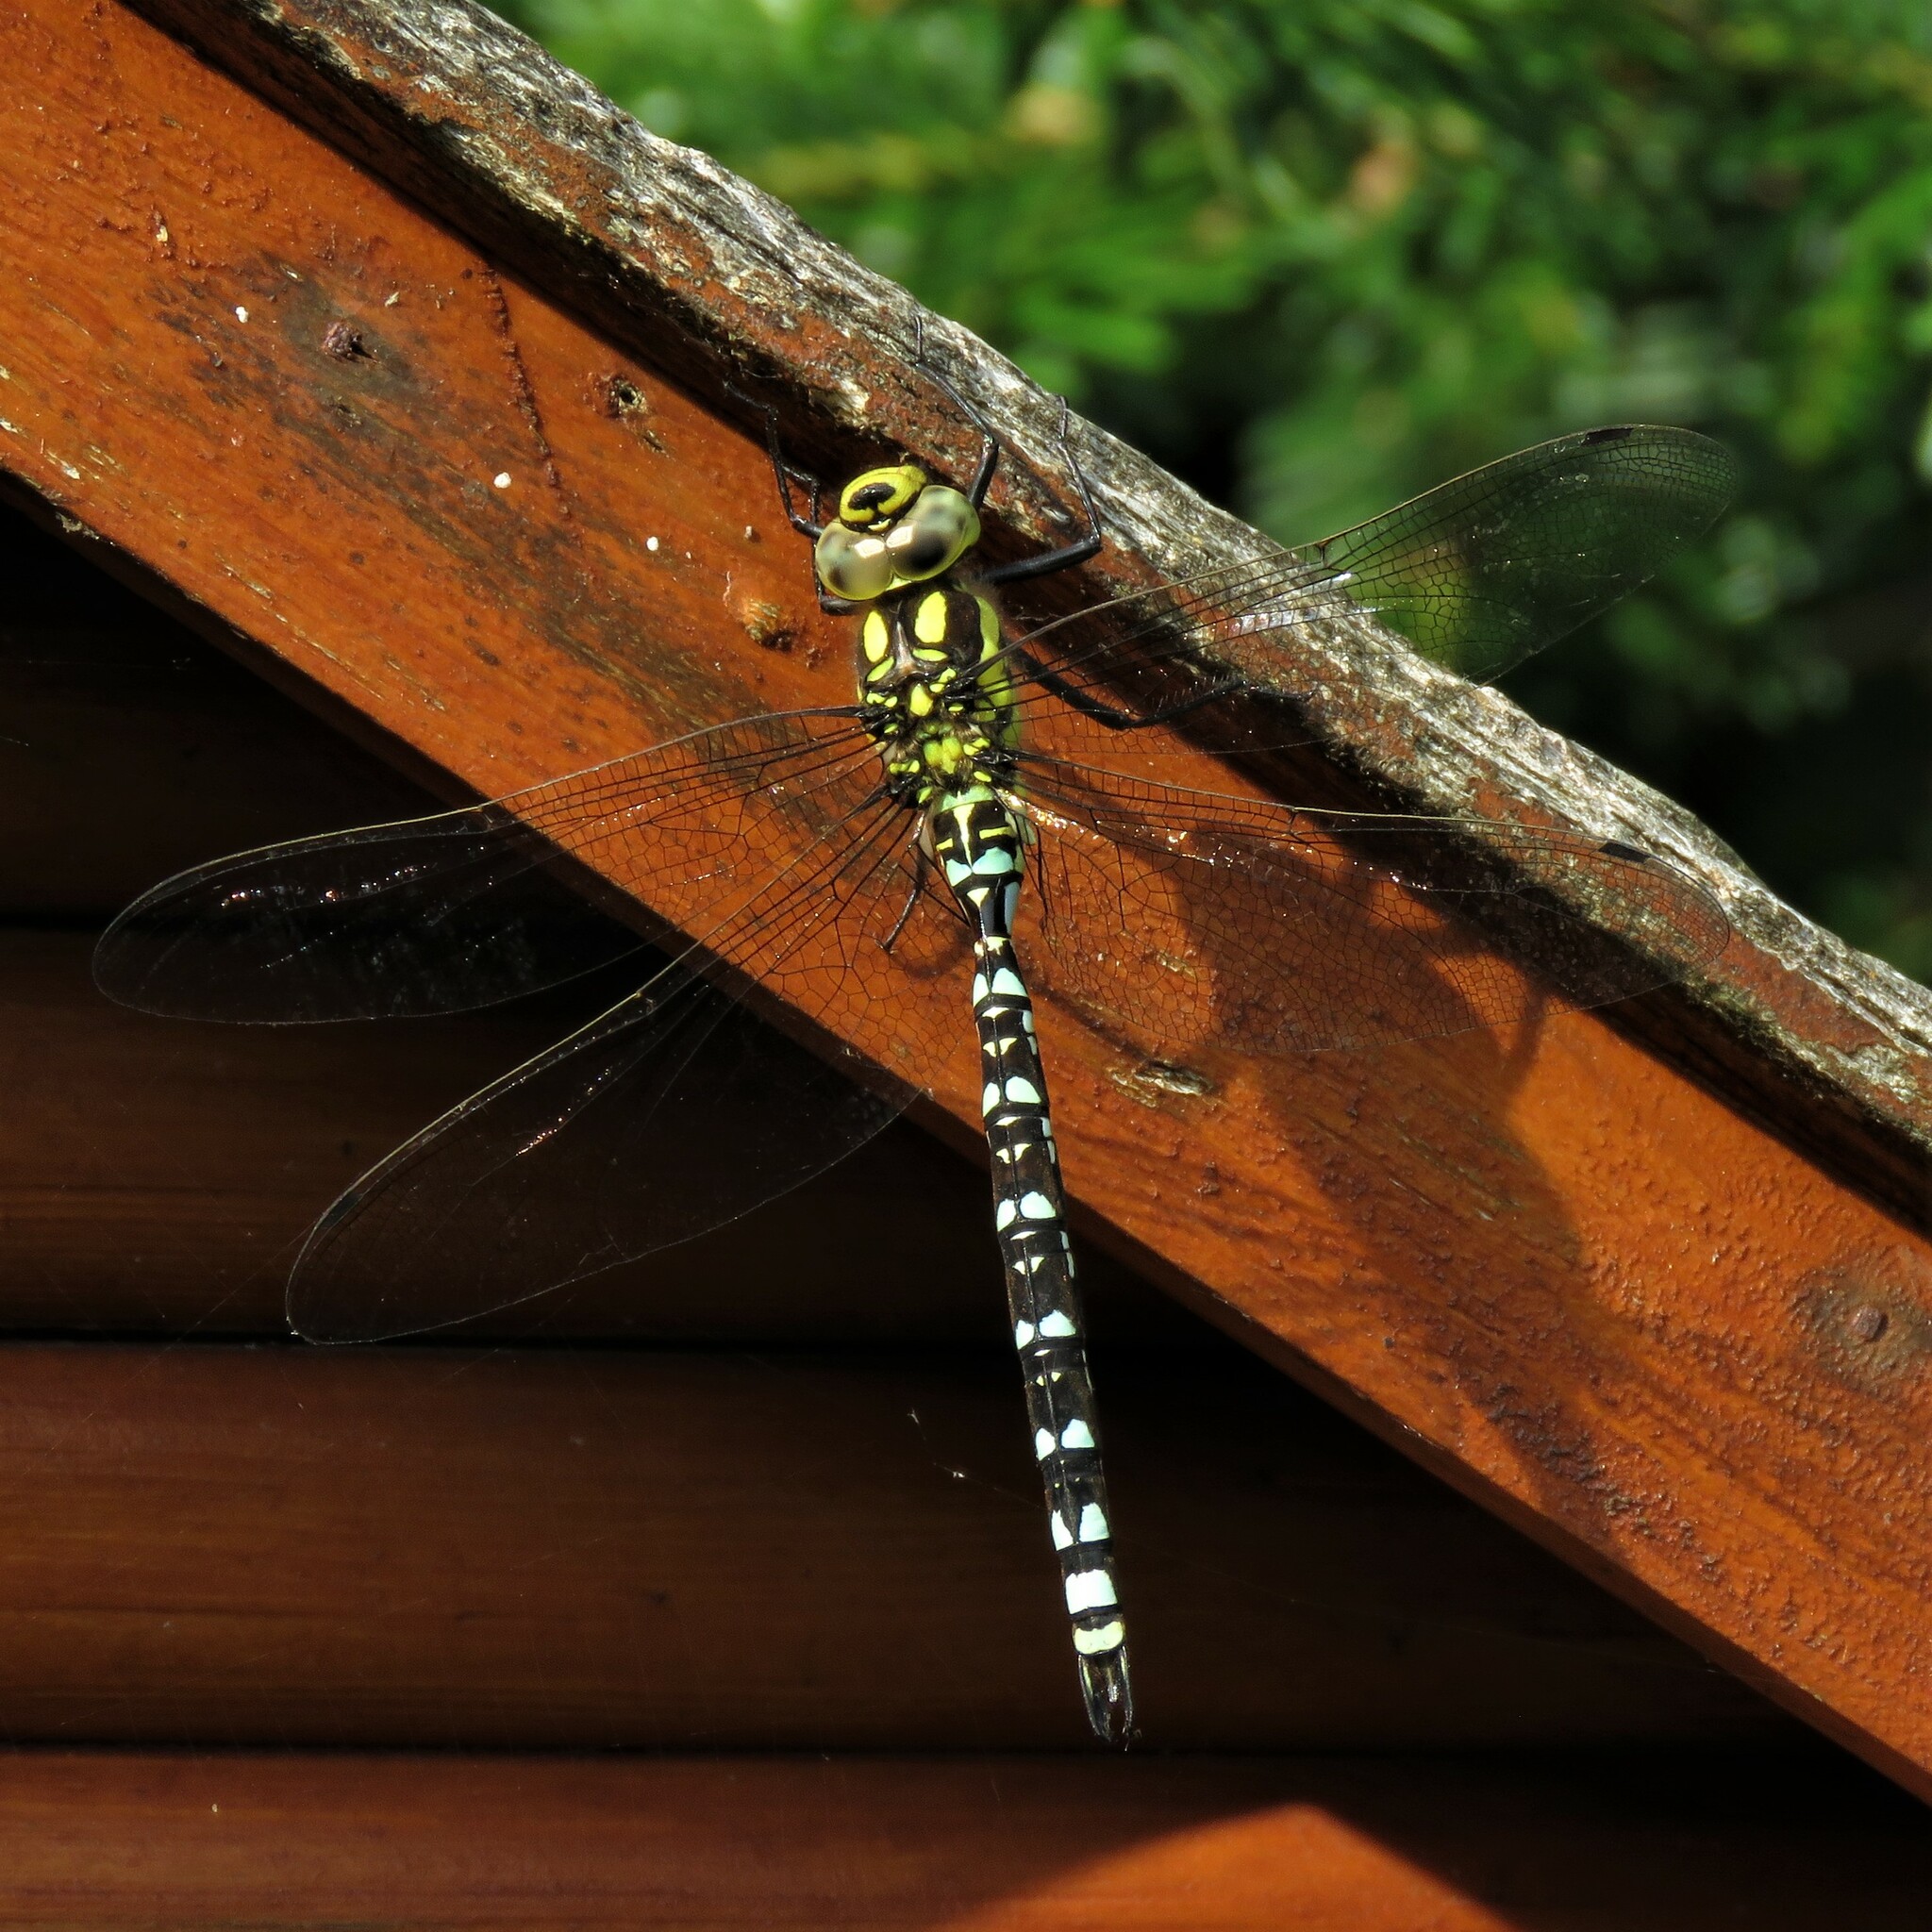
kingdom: Animalia
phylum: Arthropoda
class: Insecta
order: Odonata
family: Aeshnidae
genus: Aeshna
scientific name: Aeshna cyanea
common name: Southern hawker
